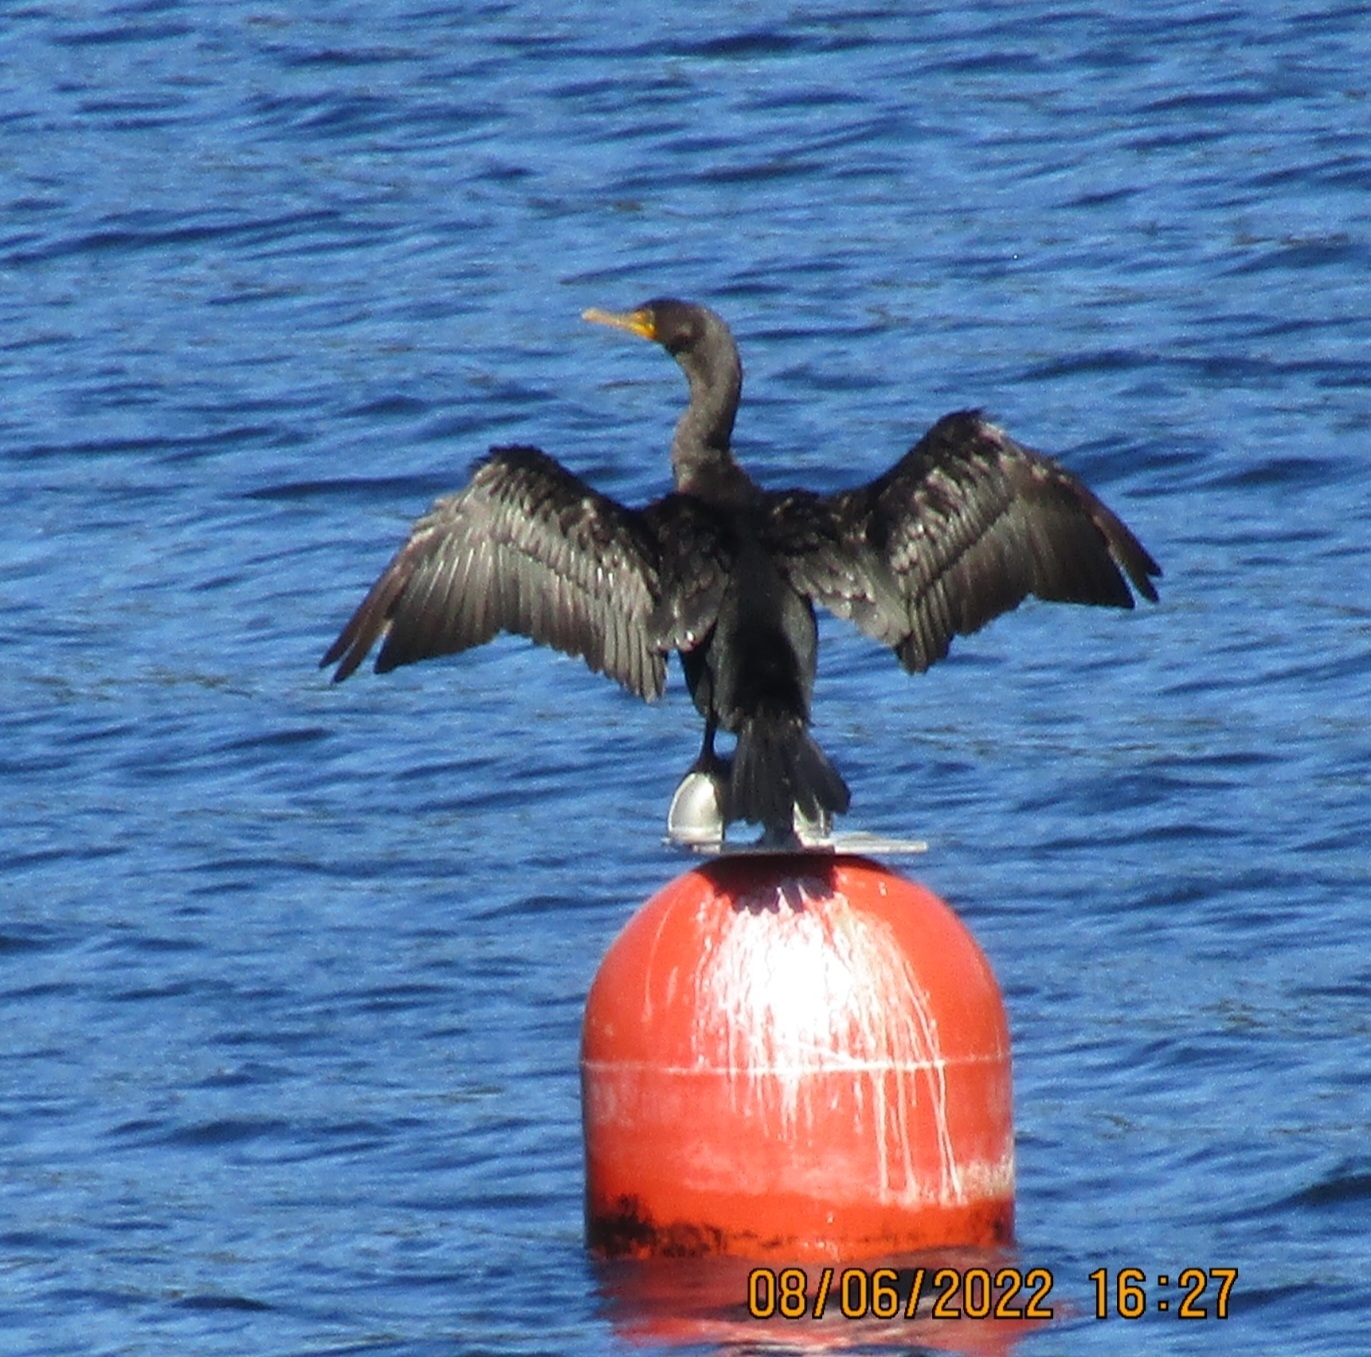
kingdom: Animalia
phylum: Chordata
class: Aves
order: Suliformes
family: Phalacrocoracidae
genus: Phalacrocorax
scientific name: Phalacrocorax auritus
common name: Double-crested cormorant
